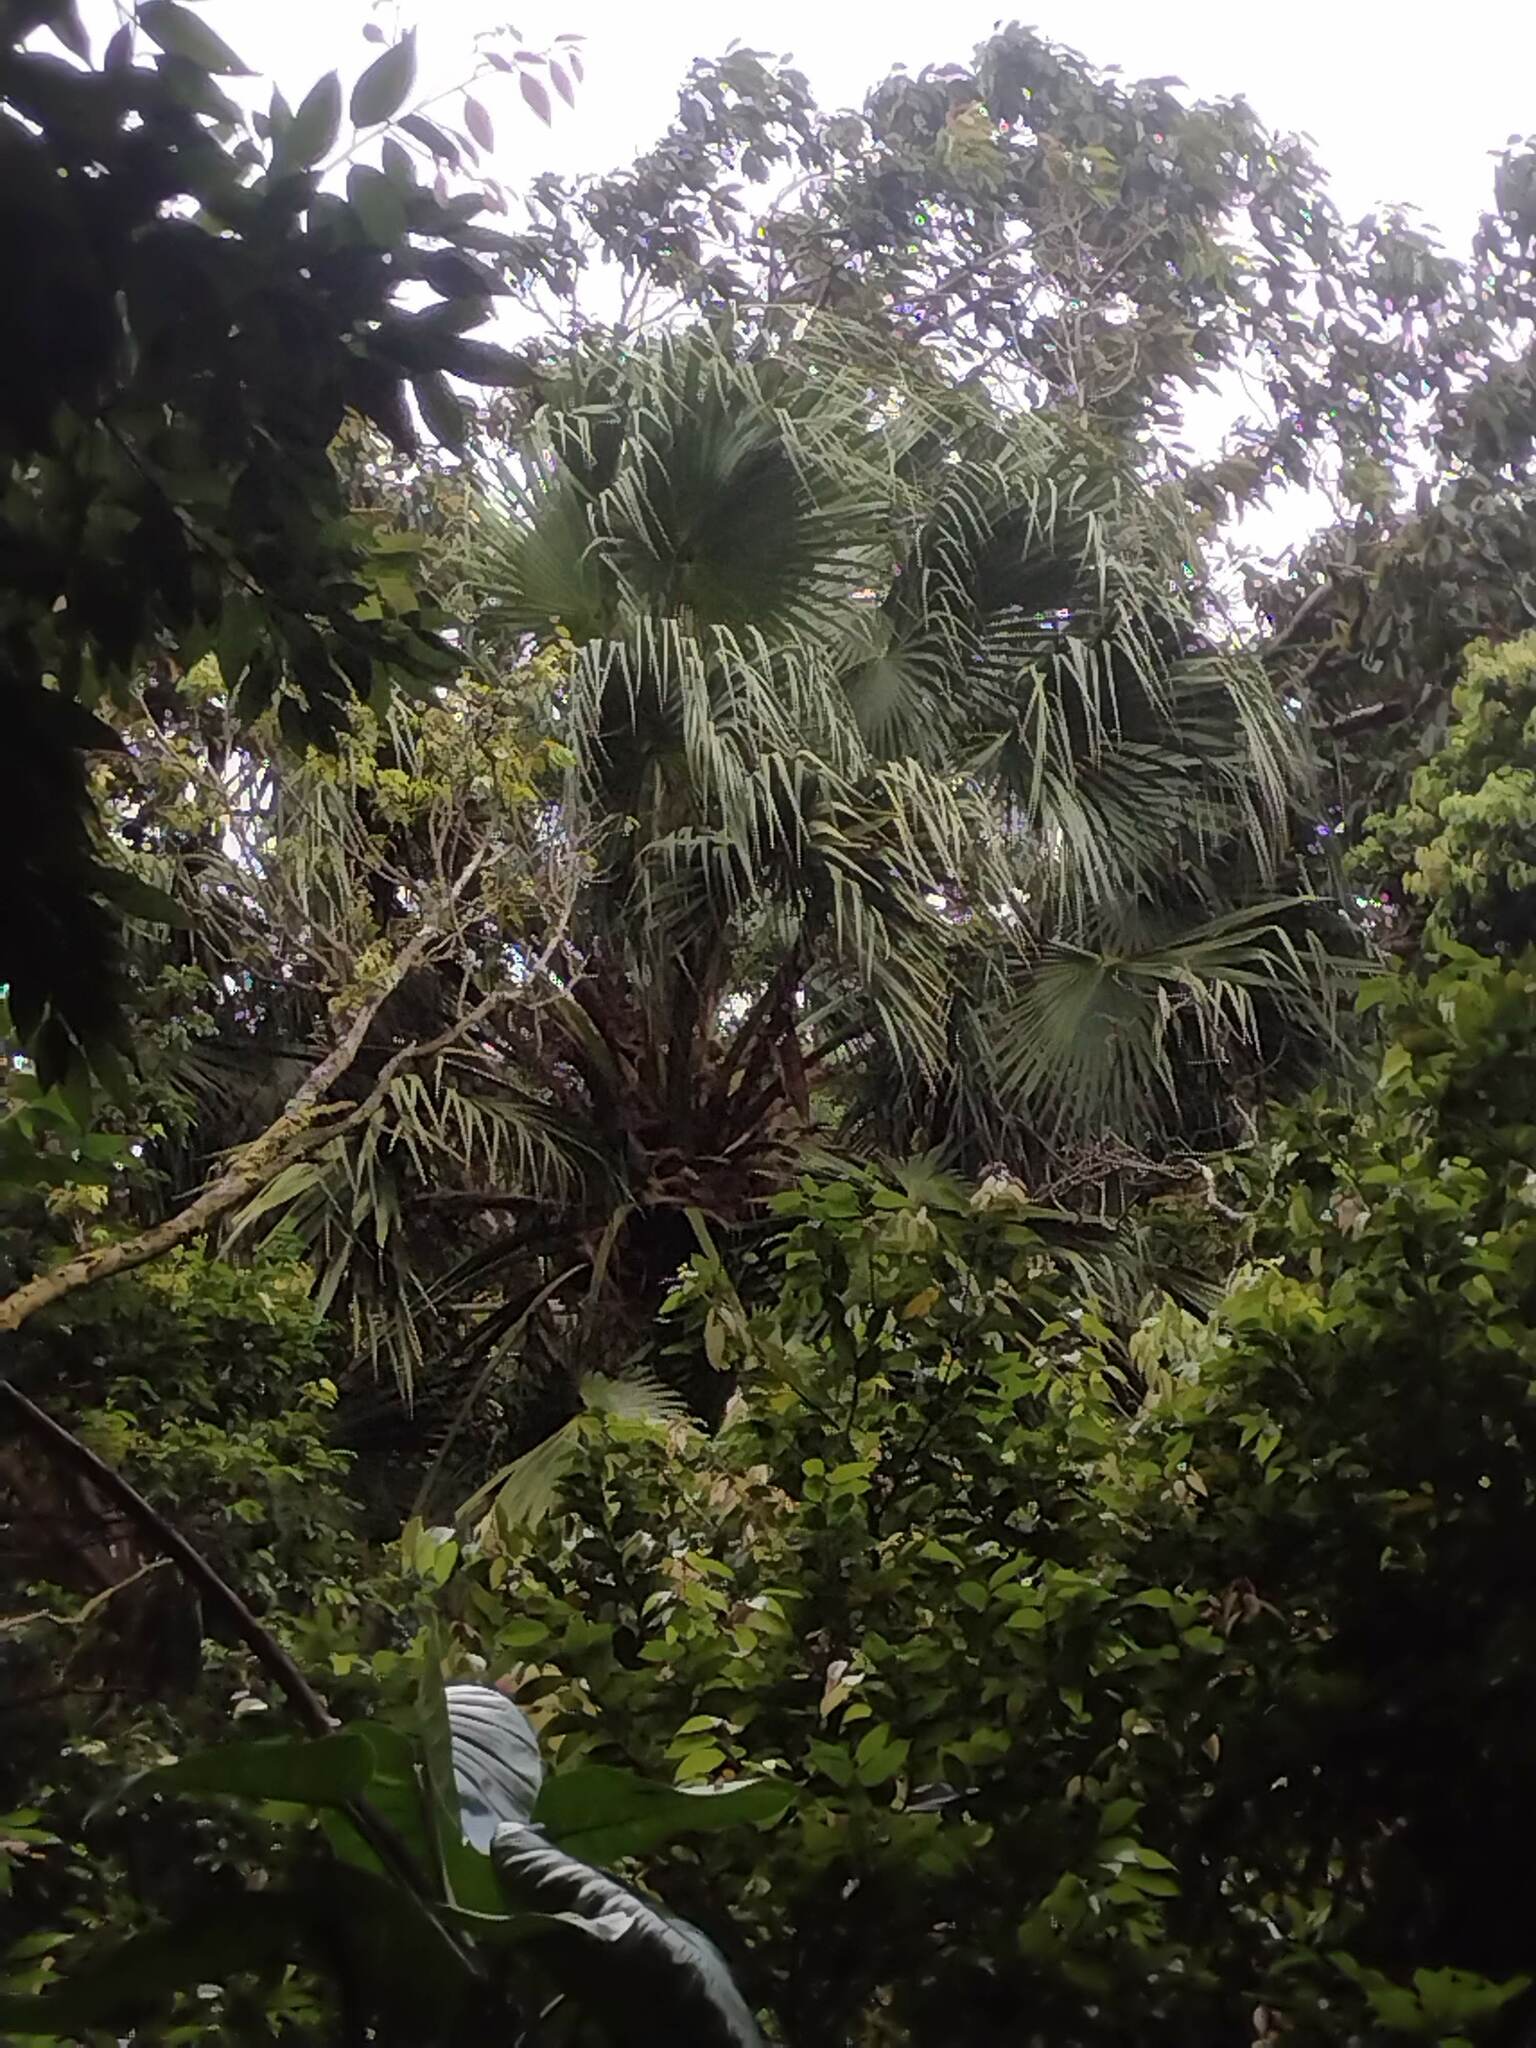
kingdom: Plantae
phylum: Tracheophyta
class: Liliopsida
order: Arecales
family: Arecaceae
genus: Livistona
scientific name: Livistona chinensis
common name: Fountain palm
